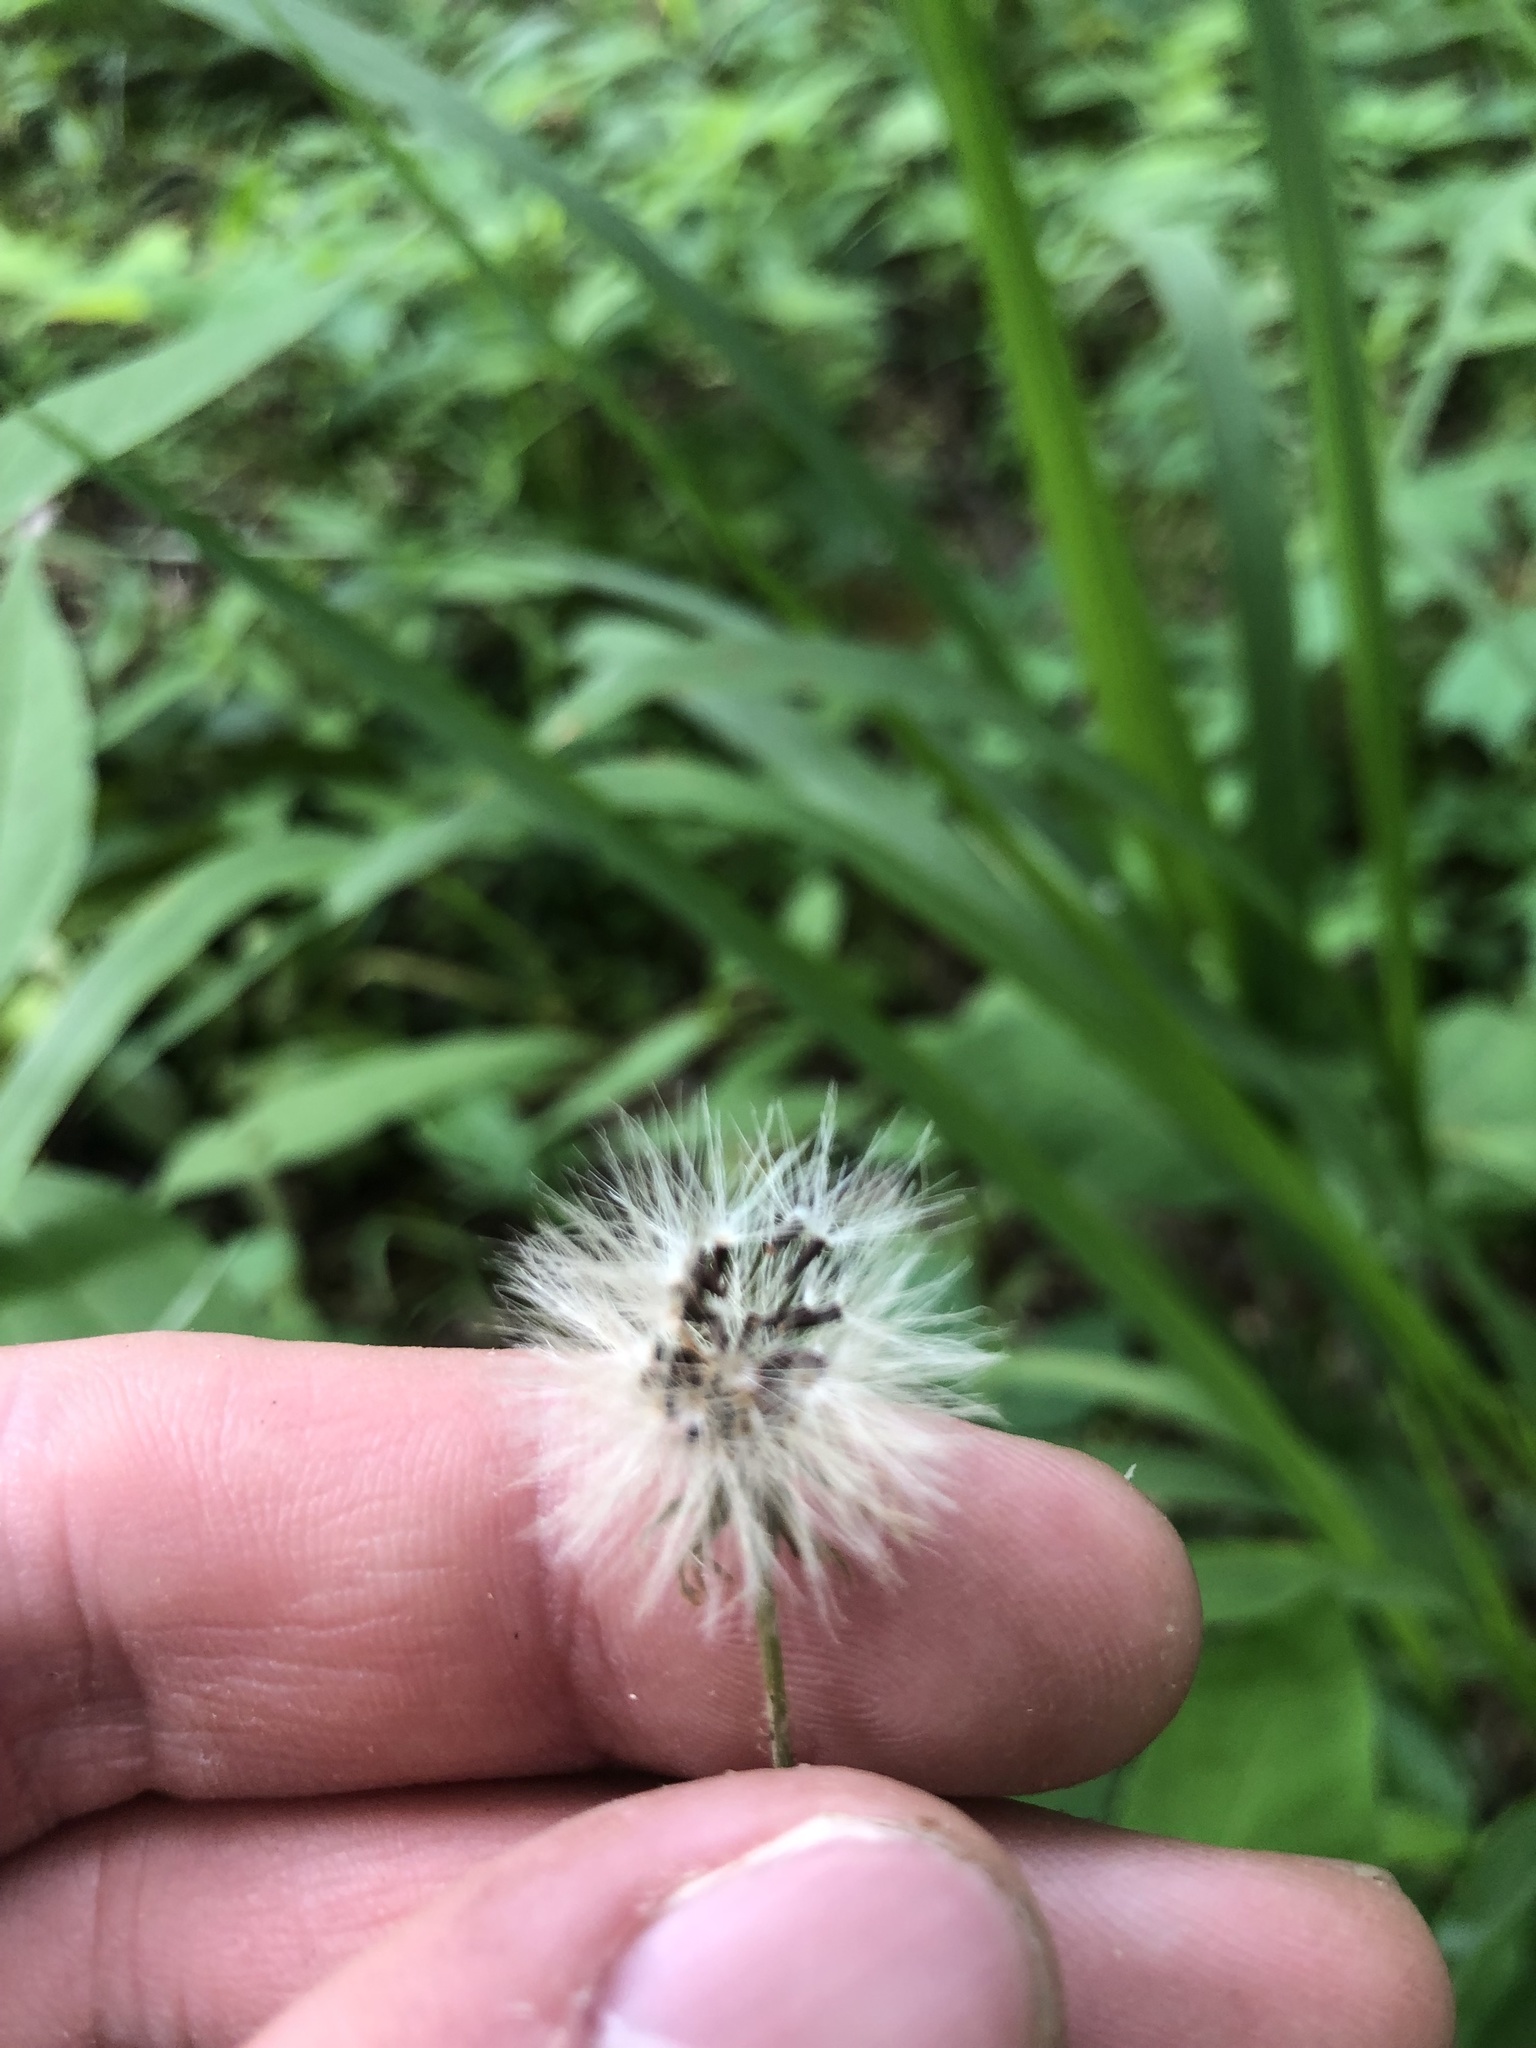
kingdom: Plantae
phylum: Tracheophyta
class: Magnoliopsida
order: Asterales
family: Asteraceae
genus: Krigia
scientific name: Krigia dandelion
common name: Colonial dwarf-dandelion
